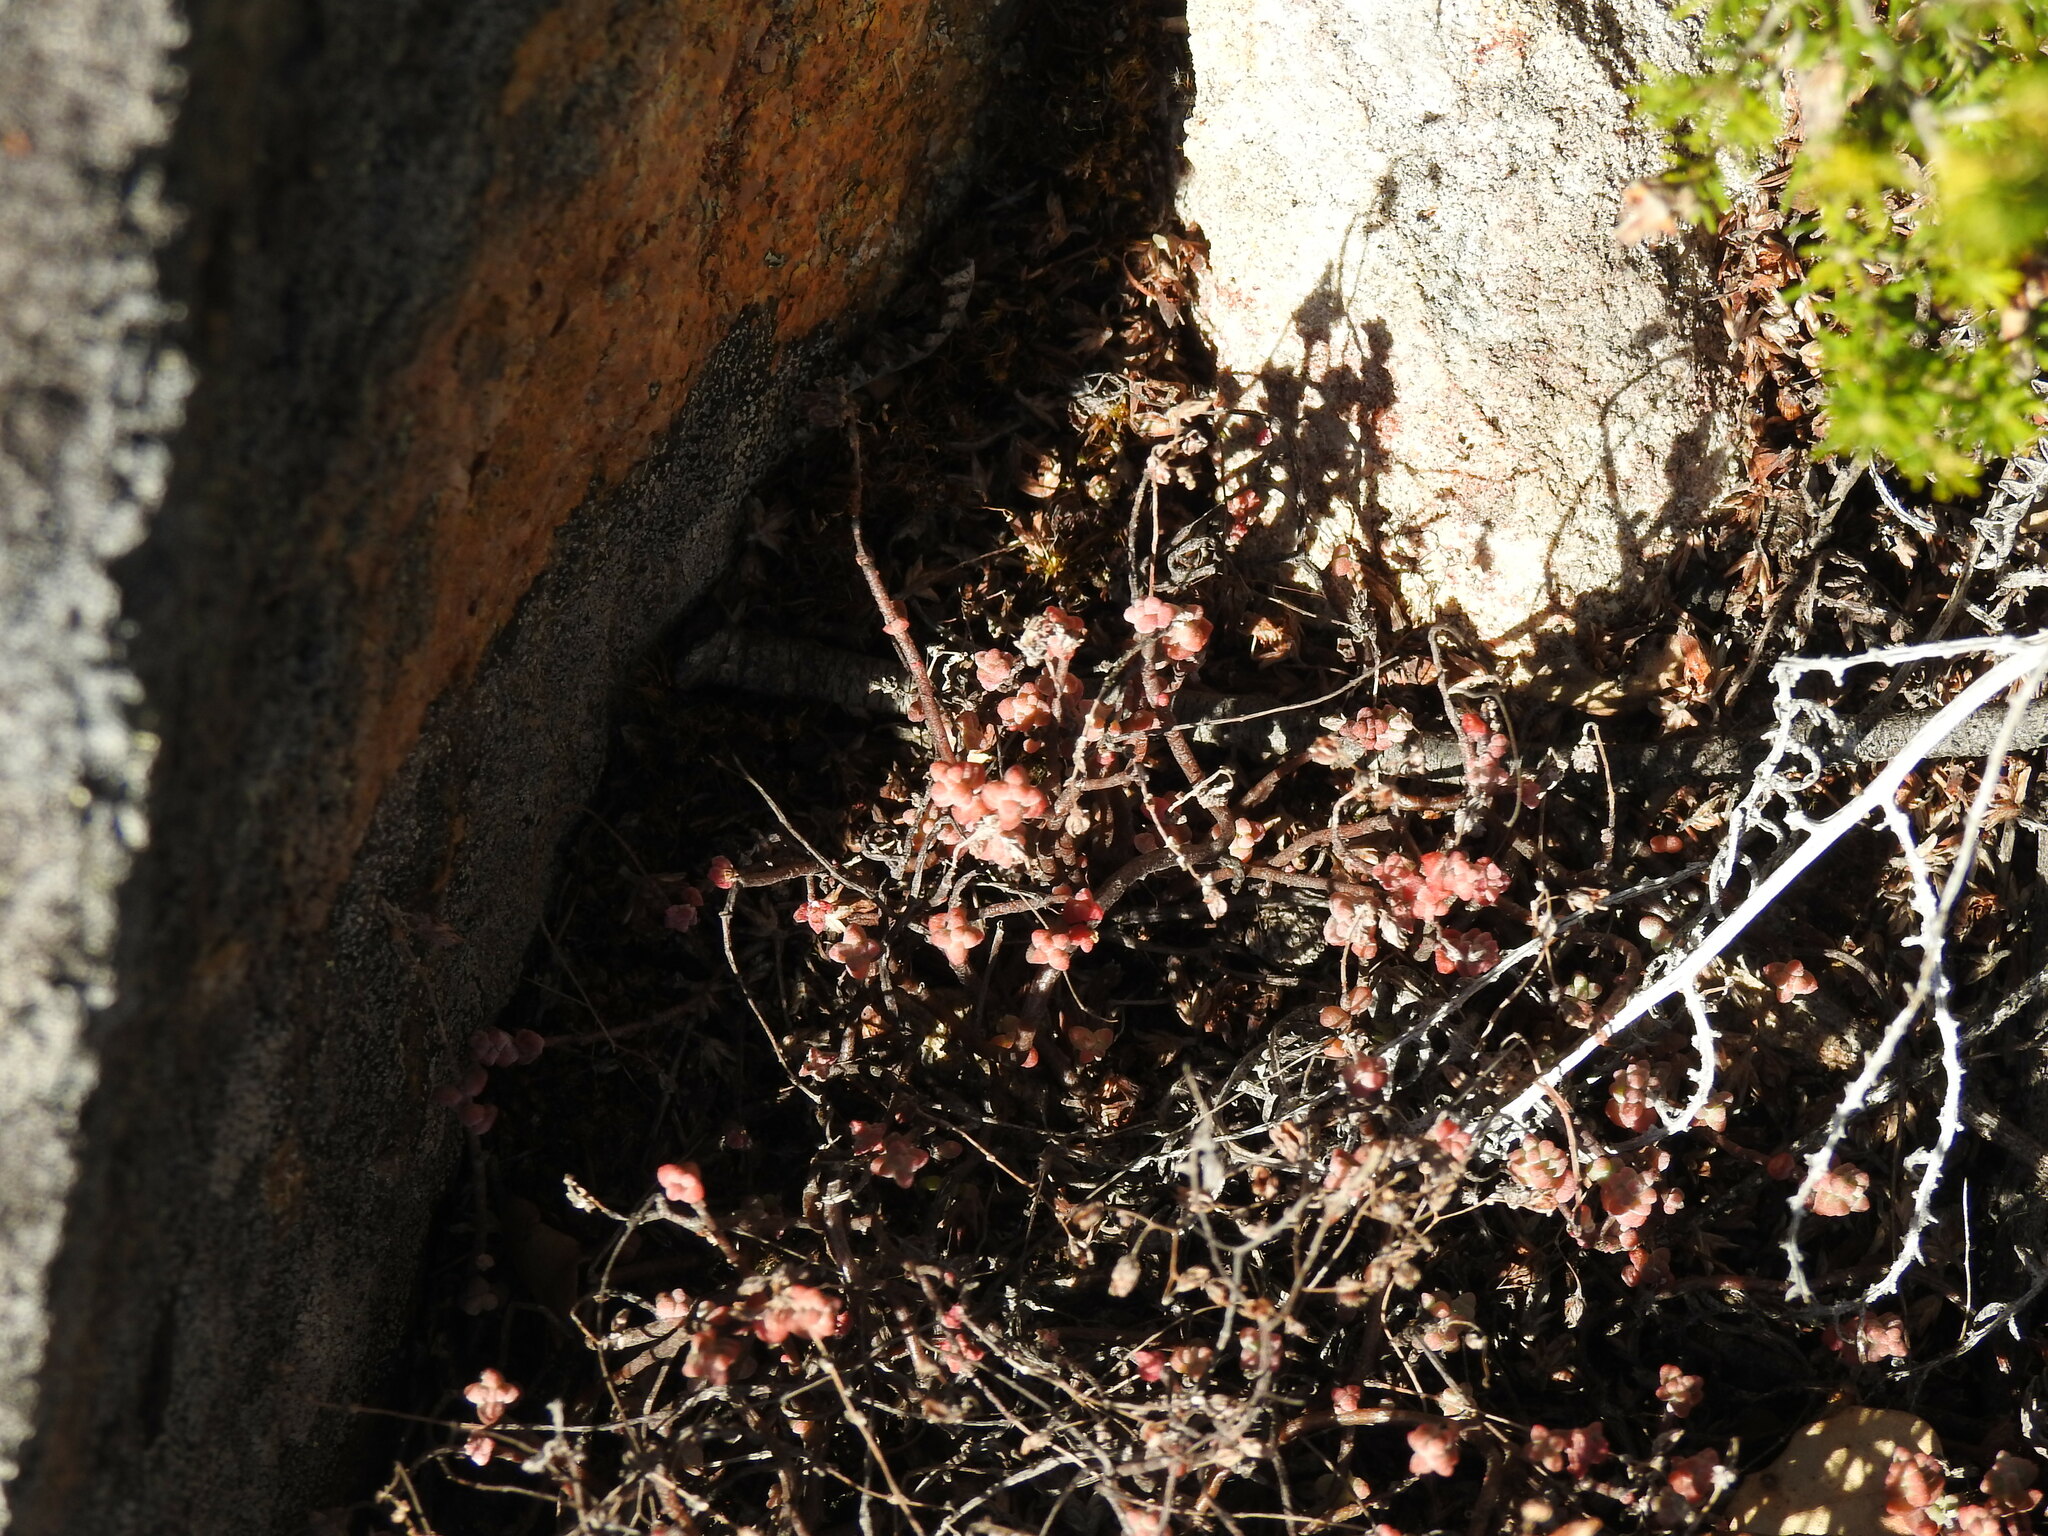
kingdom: Plantae
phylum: Tracheophyta
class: Magnoliopsida
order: Saxifragales
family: Crassulaceae
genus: Sedum
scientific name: Sedum brevifolium
